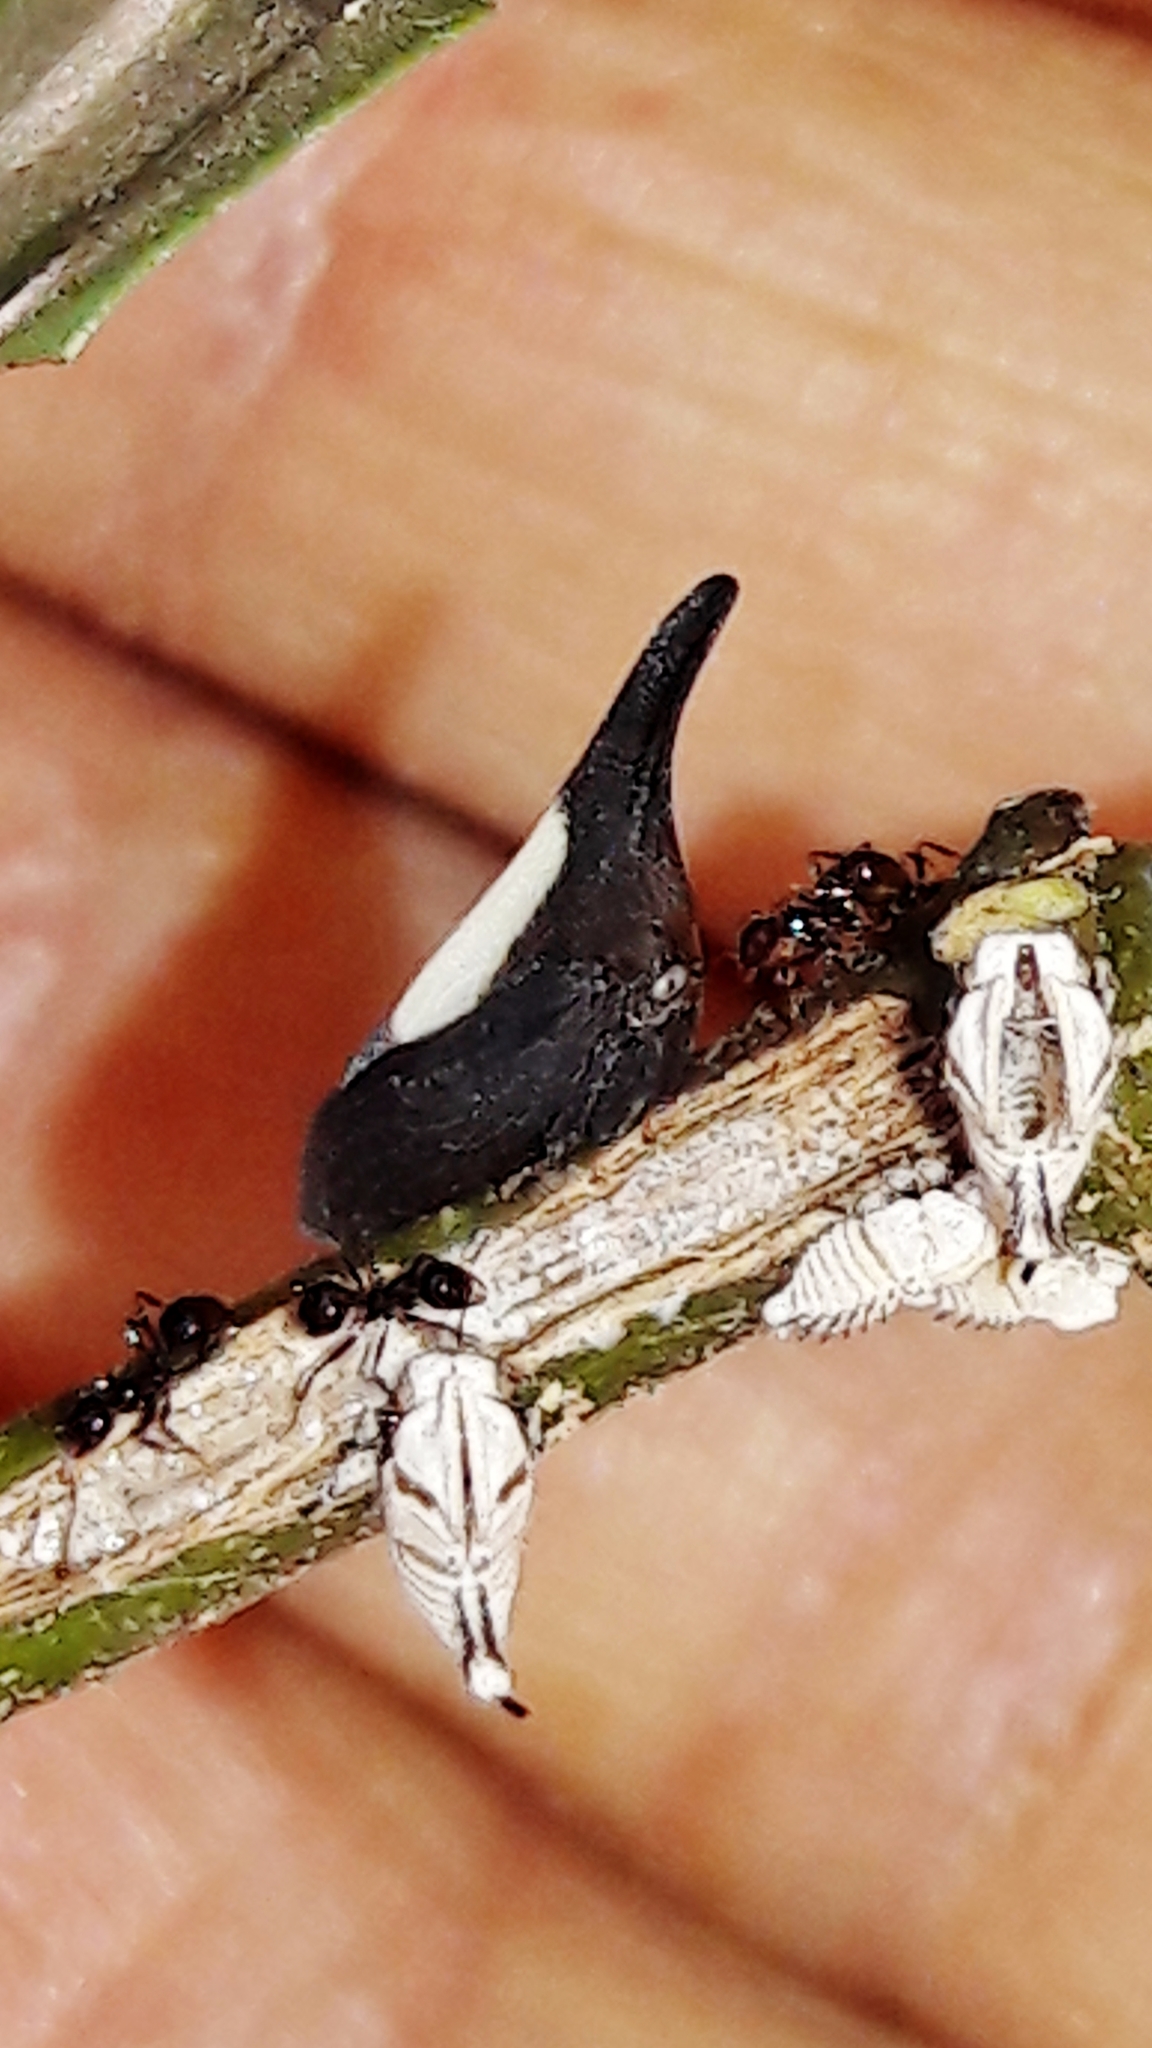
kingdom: Animalia
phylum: Arthropoda
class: Insecta
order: Hemiptera
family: Membracidae
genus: Enchenopa
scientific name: Enchenopa albidorsa
